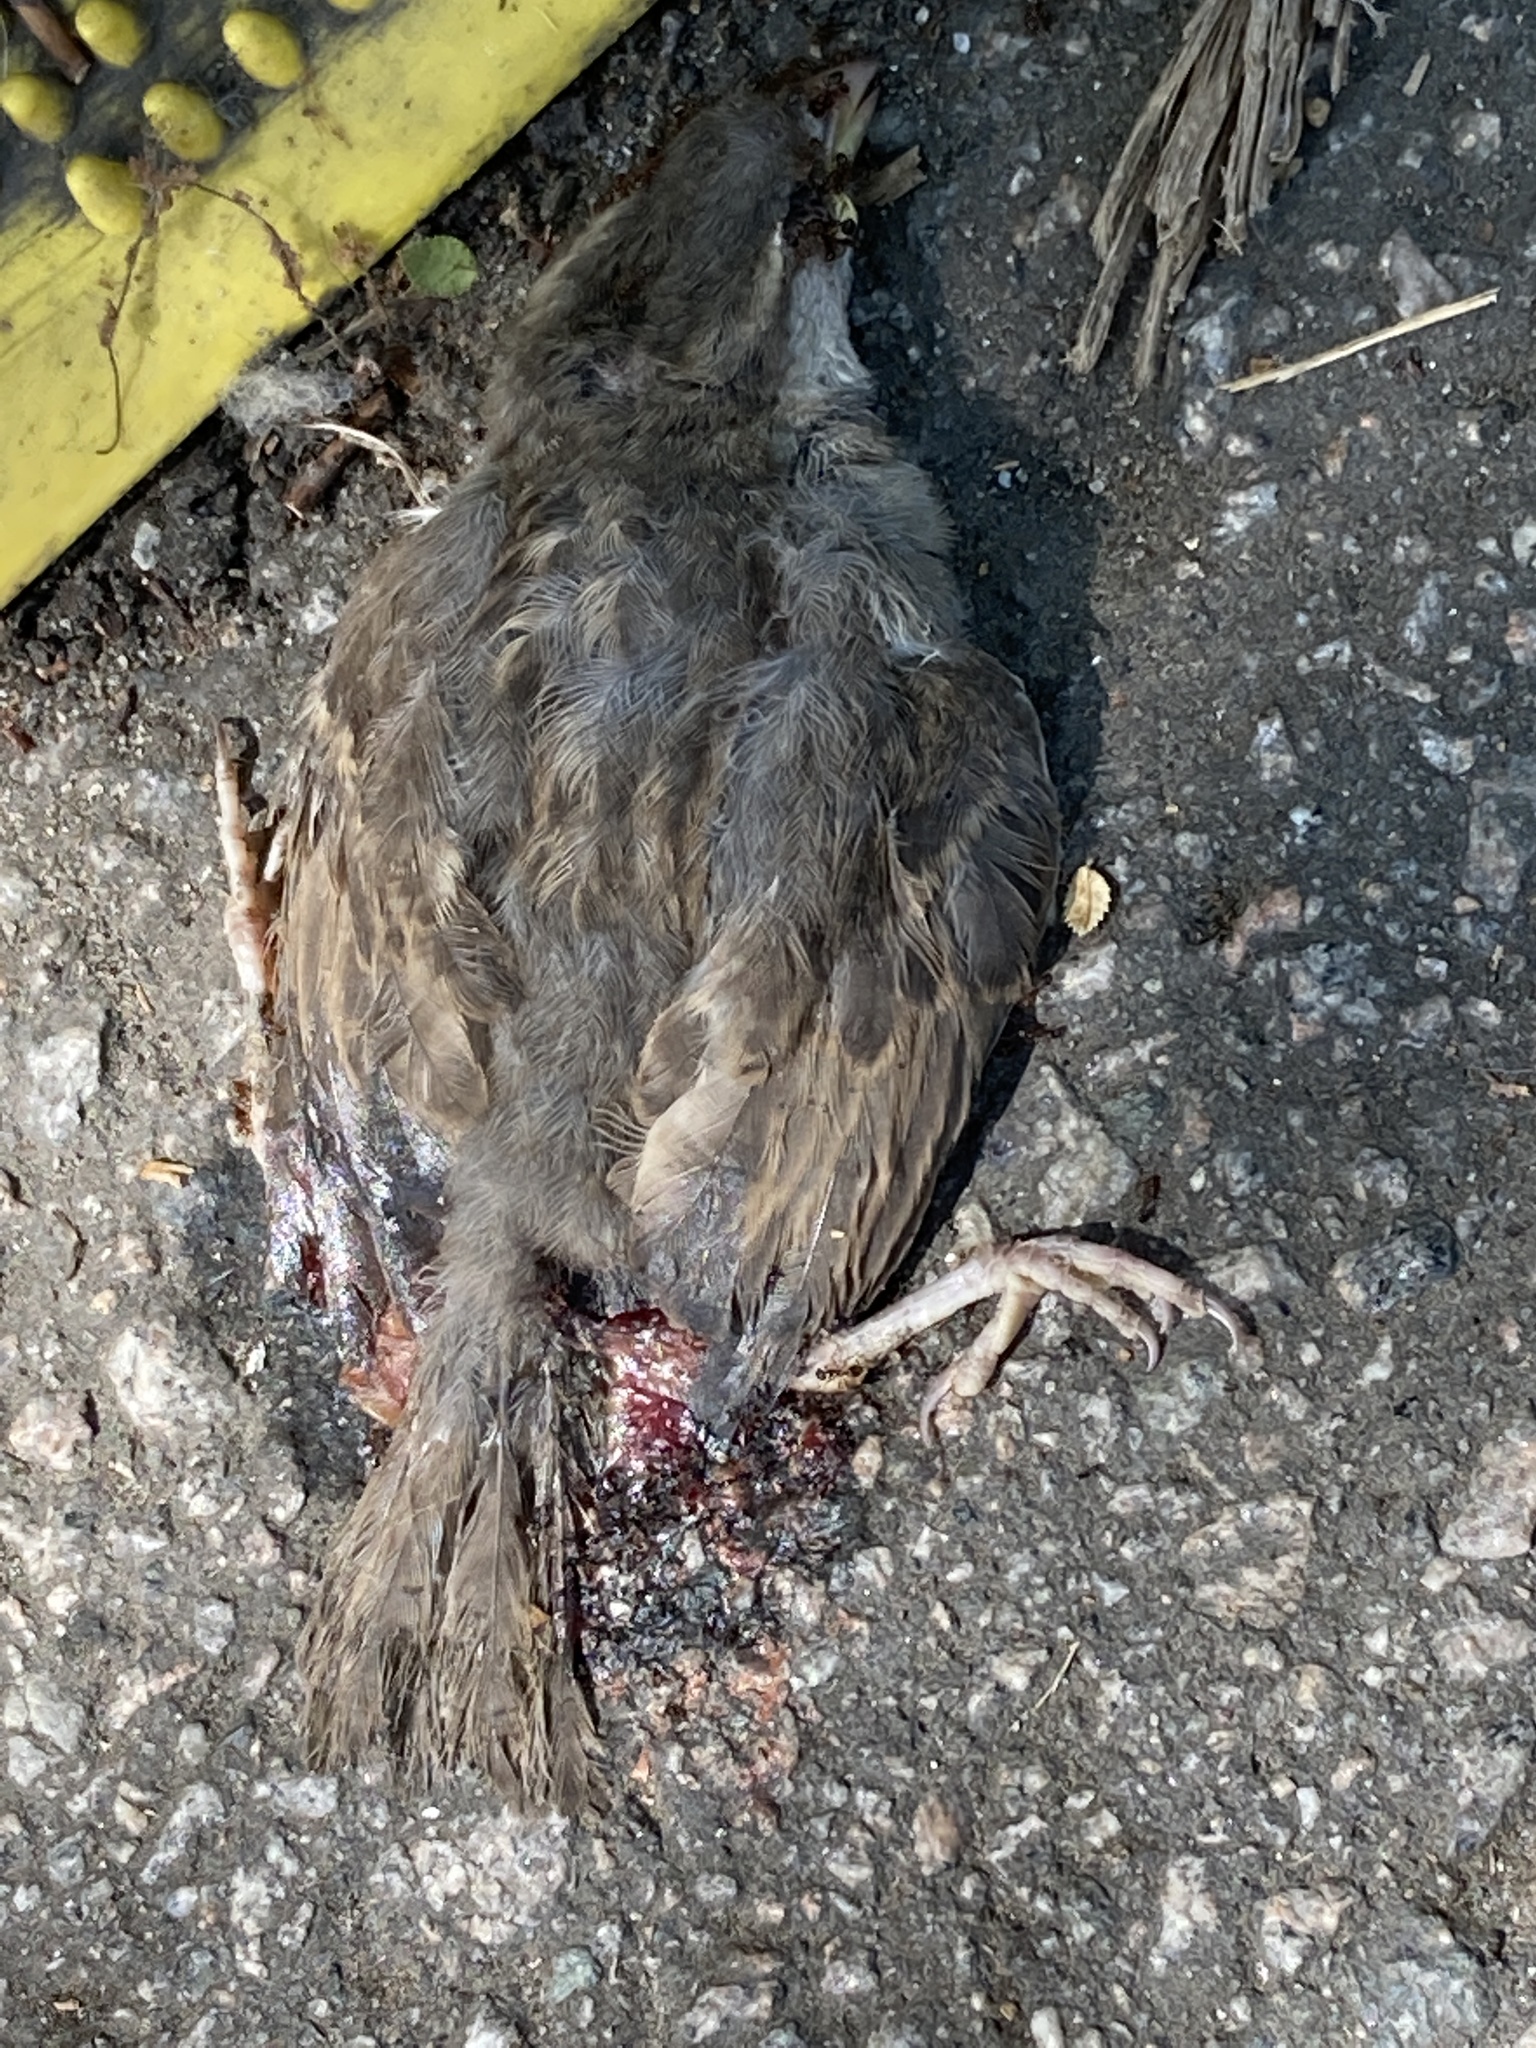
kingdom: Animalia
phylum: Chordata
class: Aves
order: Passeriformes
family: Passeridae
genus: Passer
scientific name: Passer domesticus
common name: House sparrow
